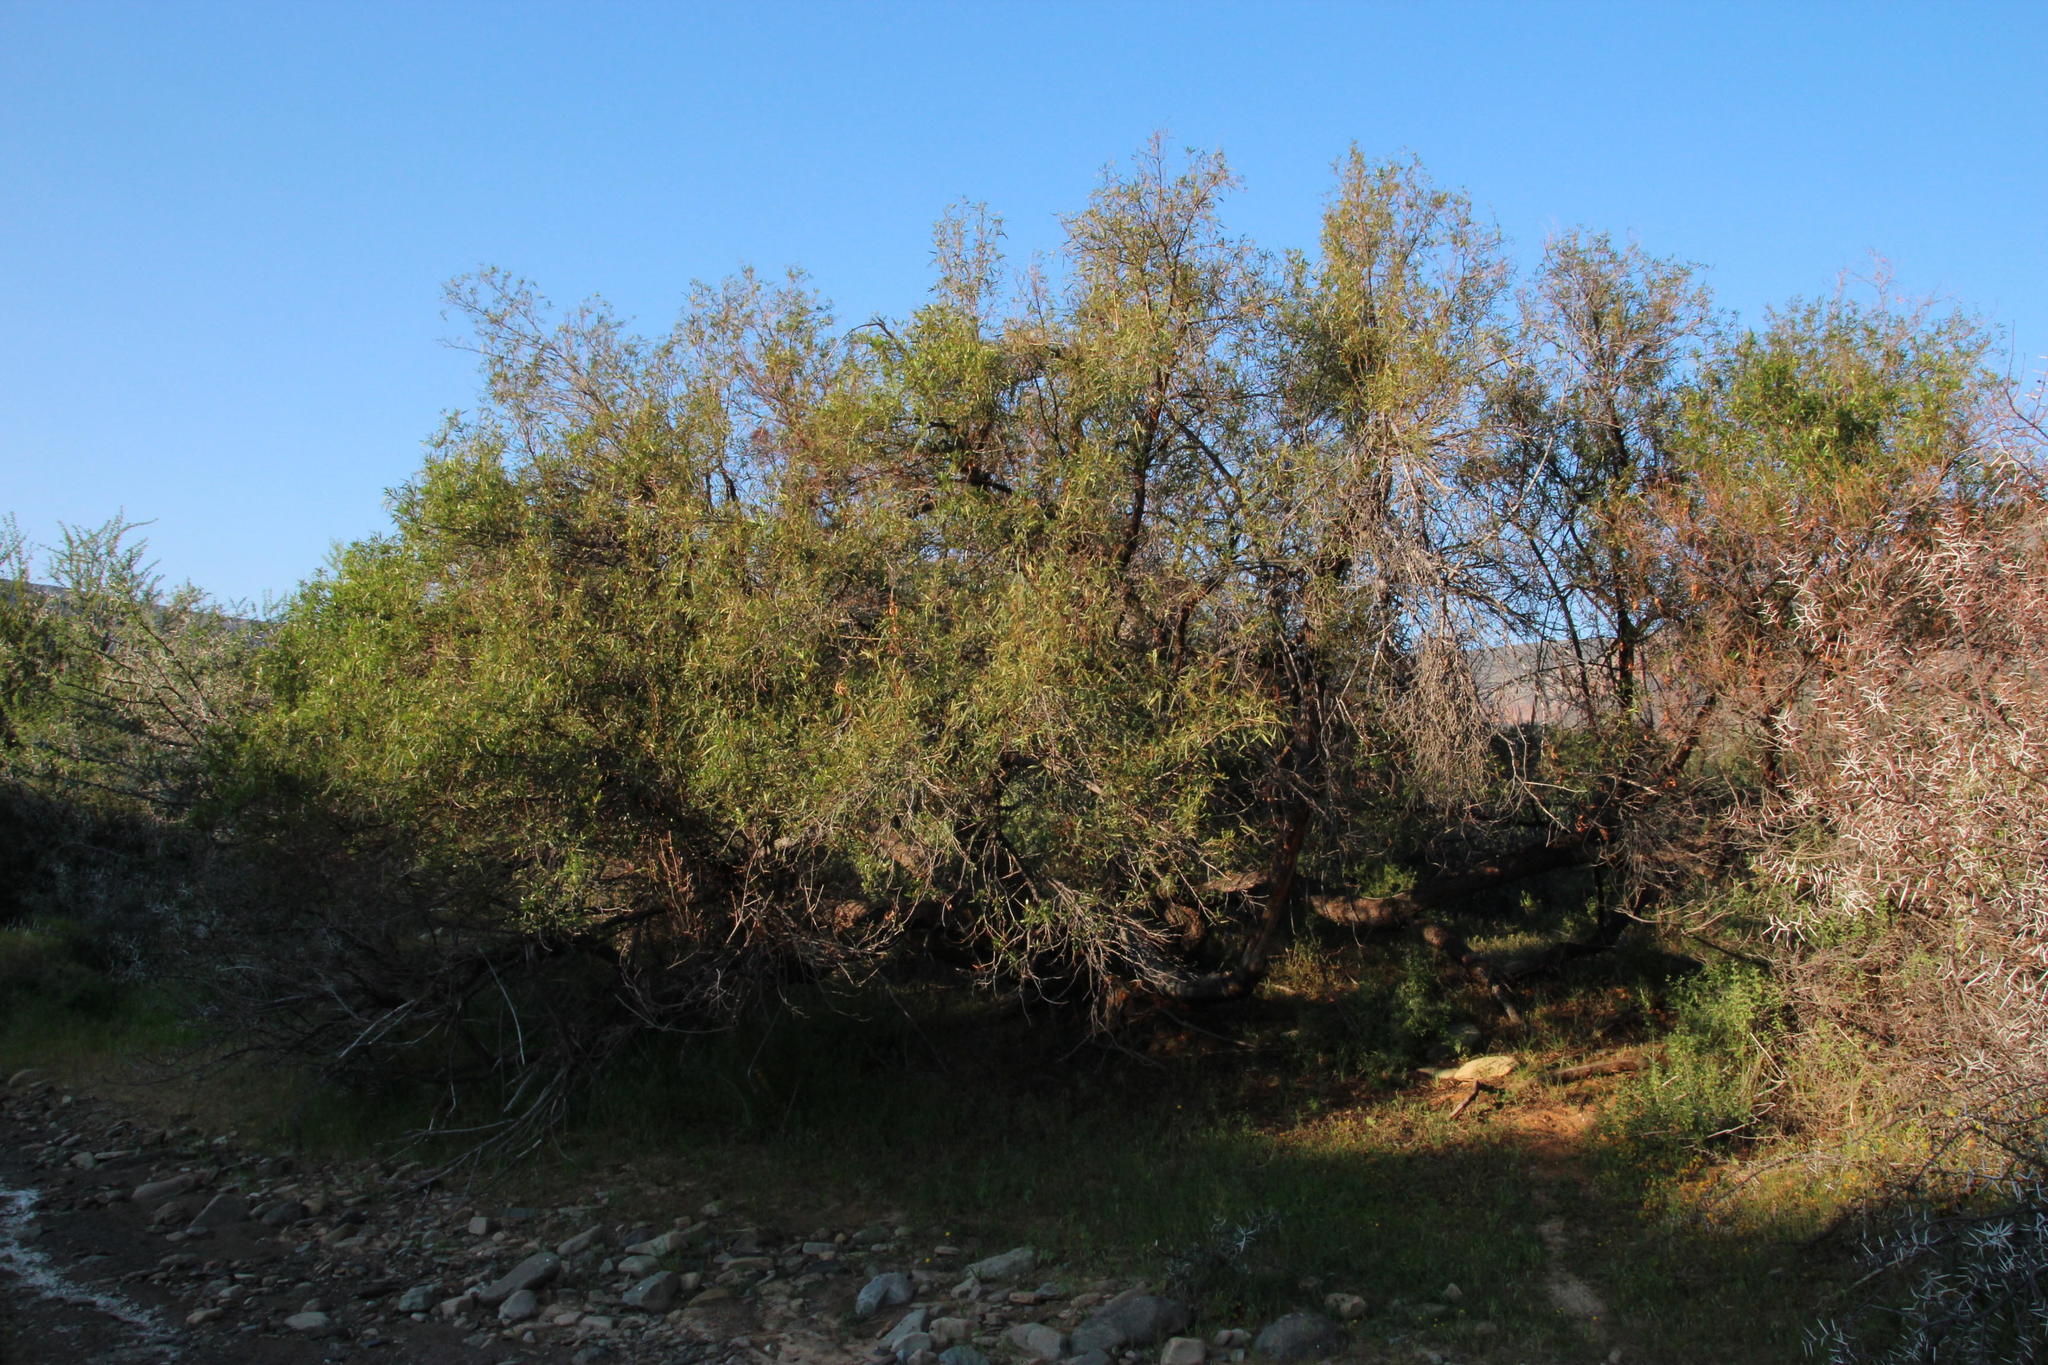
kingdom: Plantae
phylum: Tracheophyta
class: Magnoliopsida
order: Sapindales
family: Anacardiaceae
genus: Searsia
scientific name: Searsia lancea
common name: Cashew
